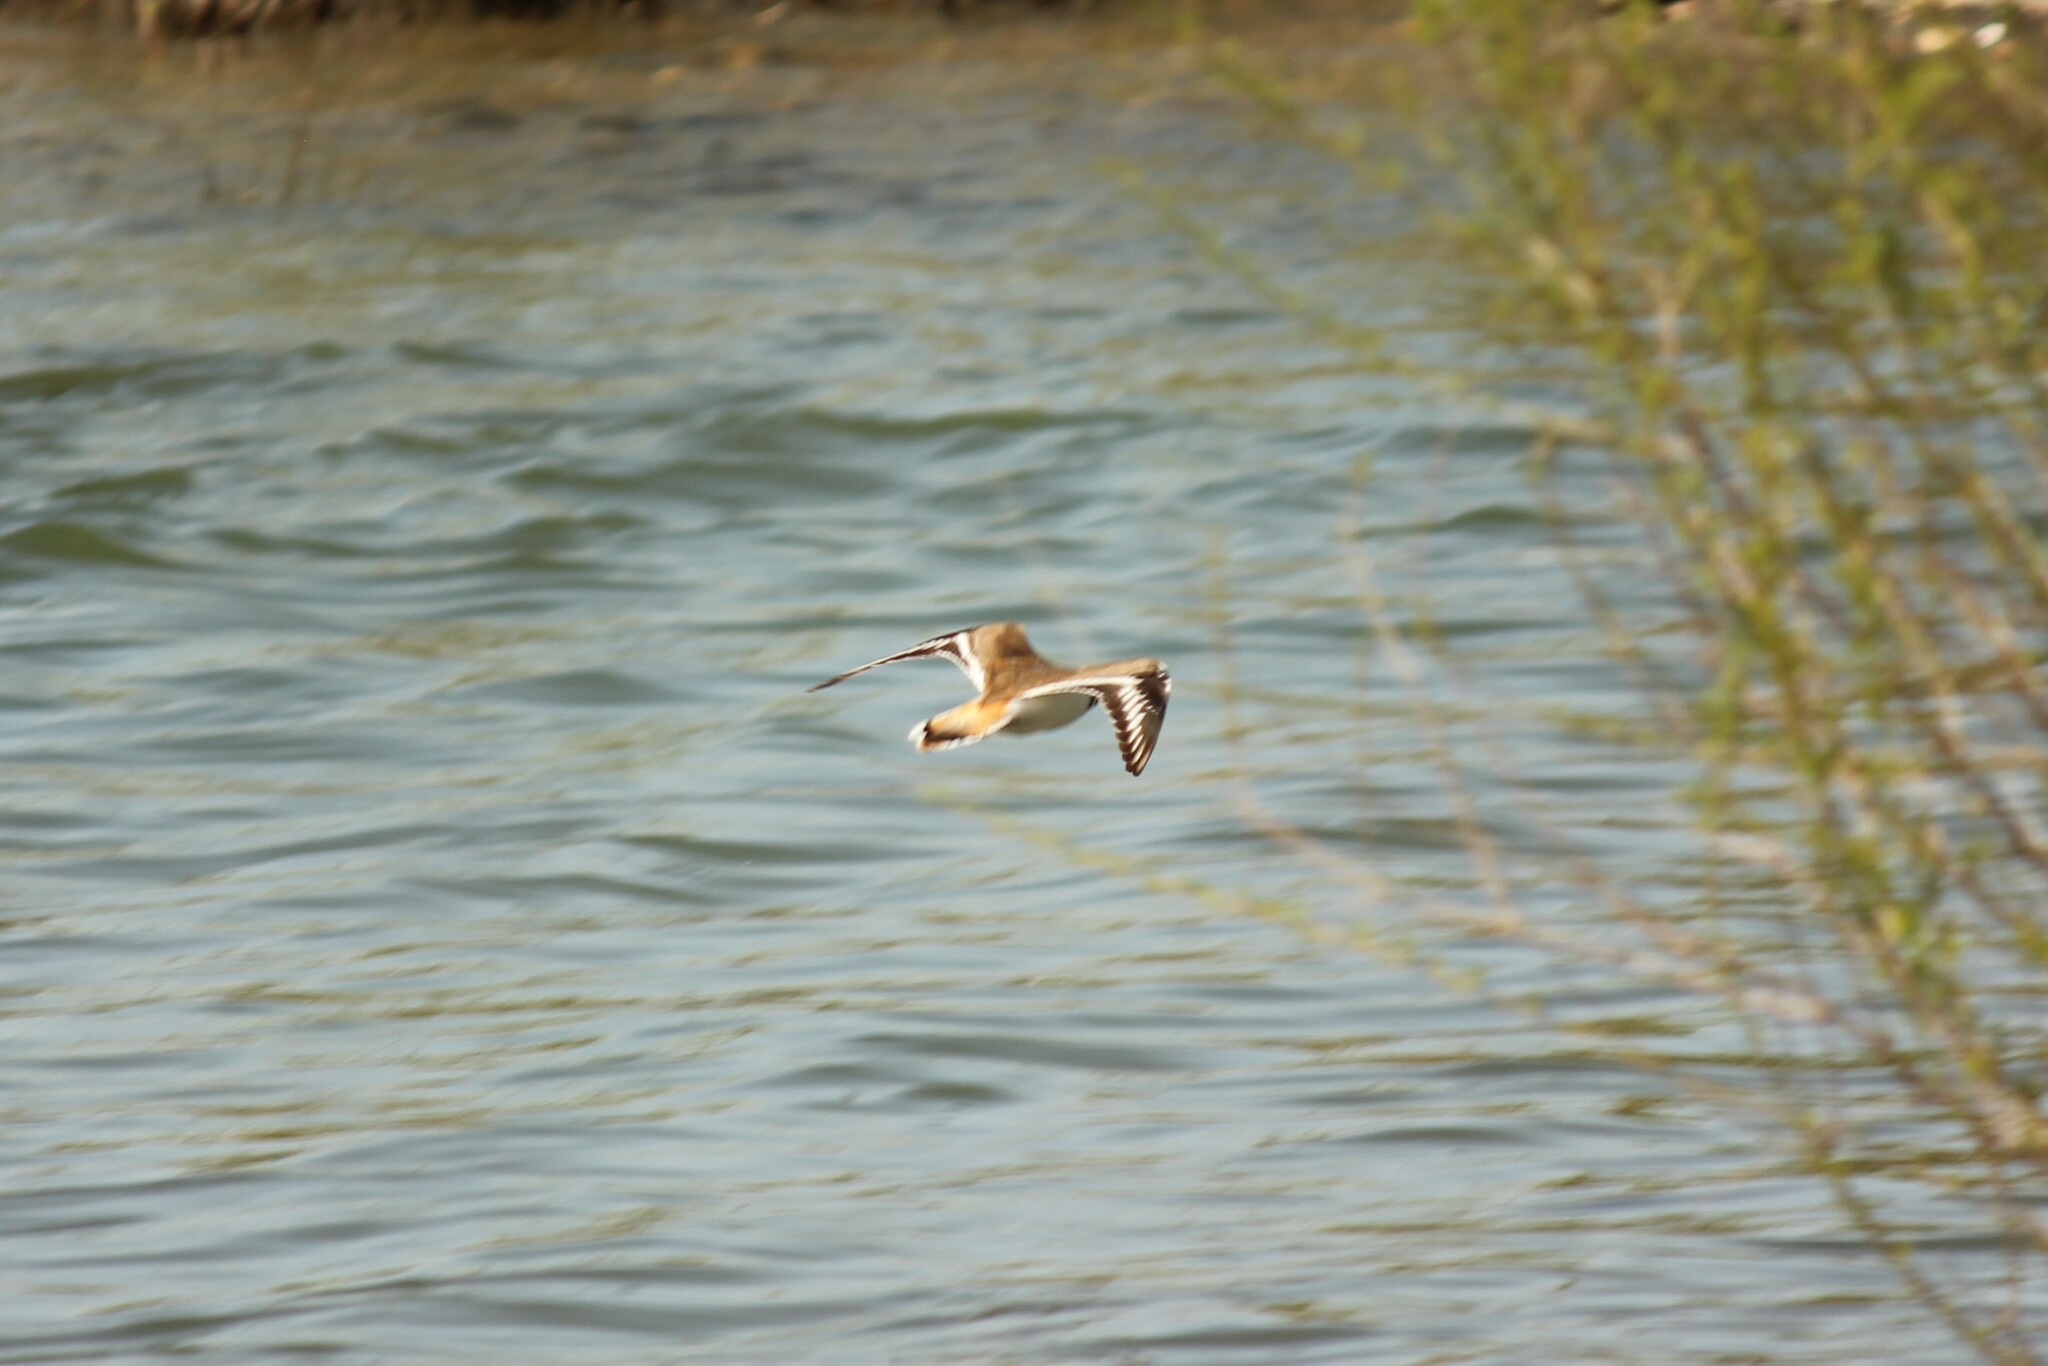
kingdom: Animalia
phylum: Chordata
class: Aves
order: Charadriiformes
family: Charadriidae
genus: Charadrius
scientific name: Charadrius vociferus
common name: Killdeer
